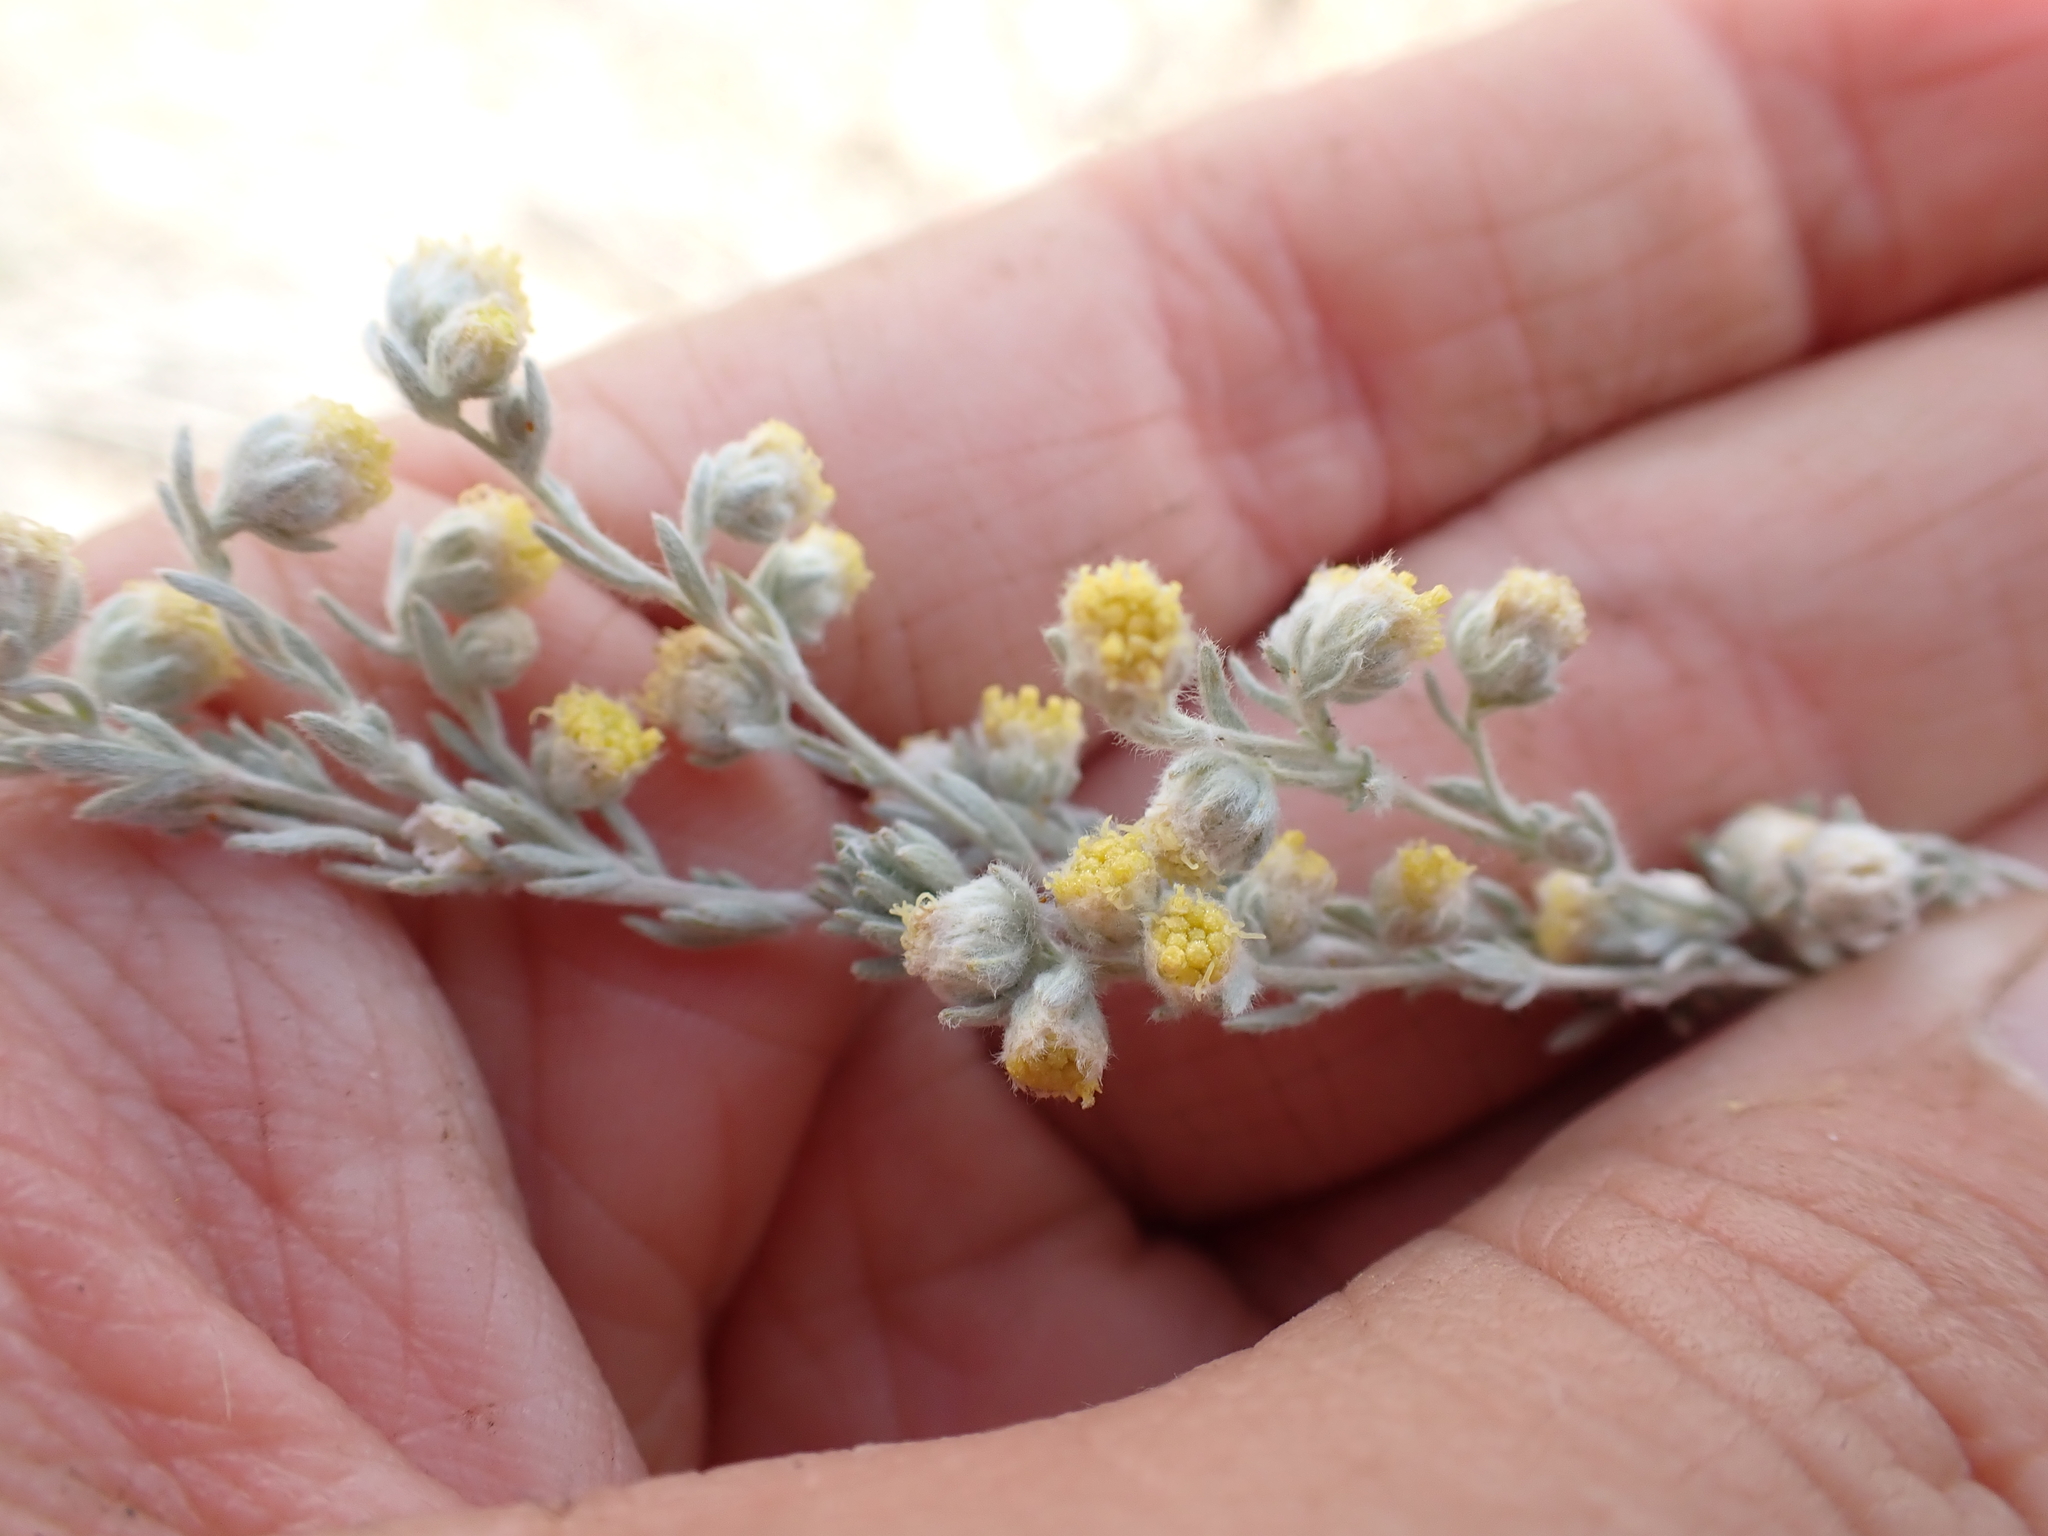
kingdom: Plantae
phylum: Tracheophyta
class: Magnoliopsida
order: Asterales
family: Asteraceae
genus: Artemisia
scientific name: Artemisia frigida
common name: Prairie sagewort
